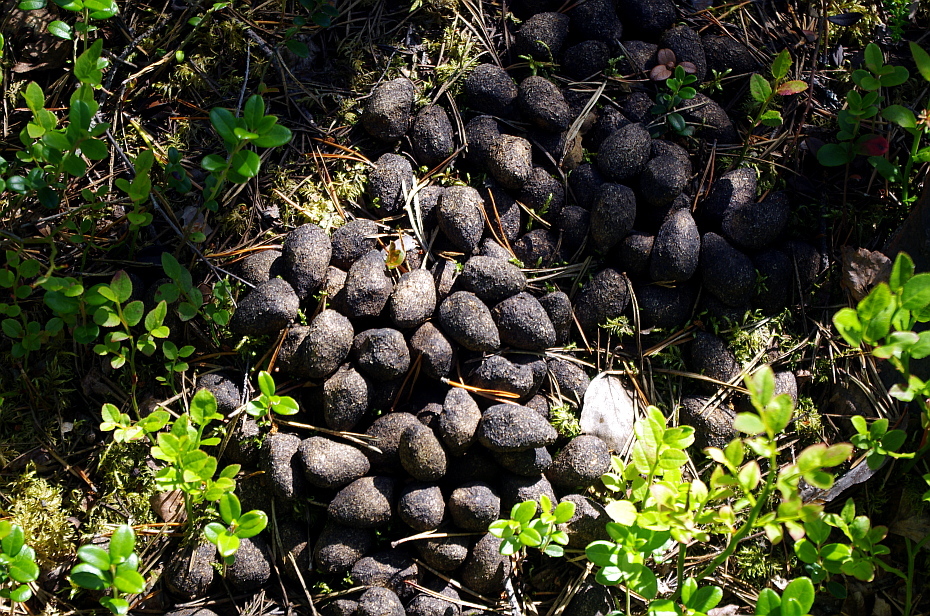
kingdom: Animalia
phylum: Chordata
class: Mammalia
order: Artiodactyla
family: Cervidae
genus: Alces
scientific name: Alces alces
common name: Moose
